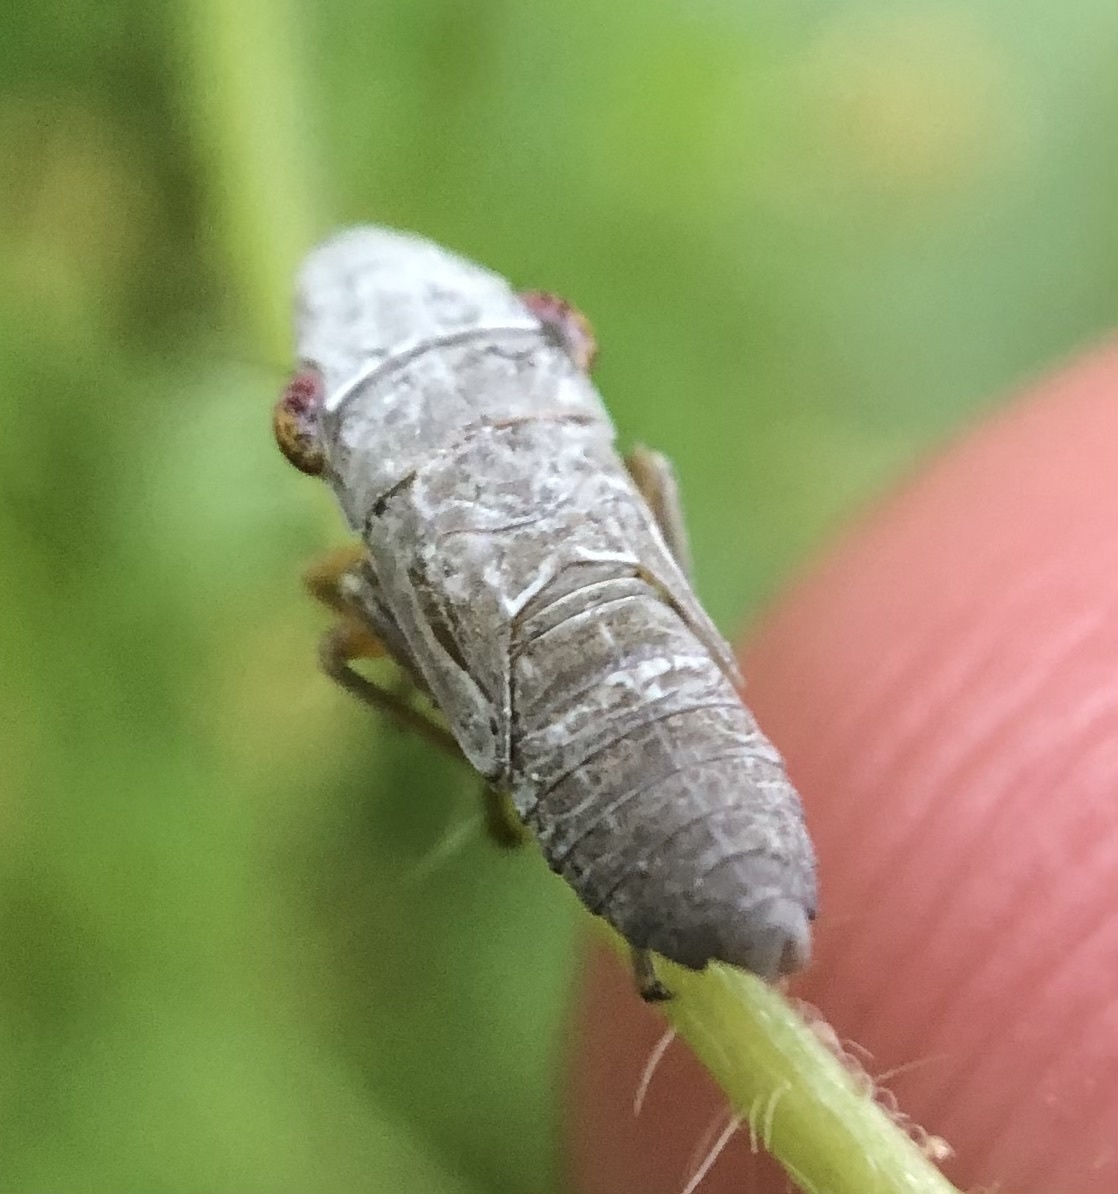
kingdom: Animalia
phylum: Arthropoda
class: Insecta
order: Hemiptera
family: Cicadellidae
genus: Homalodisca
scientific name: Homalodisca vitripennis
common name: Glassy-winged sharpshooter
